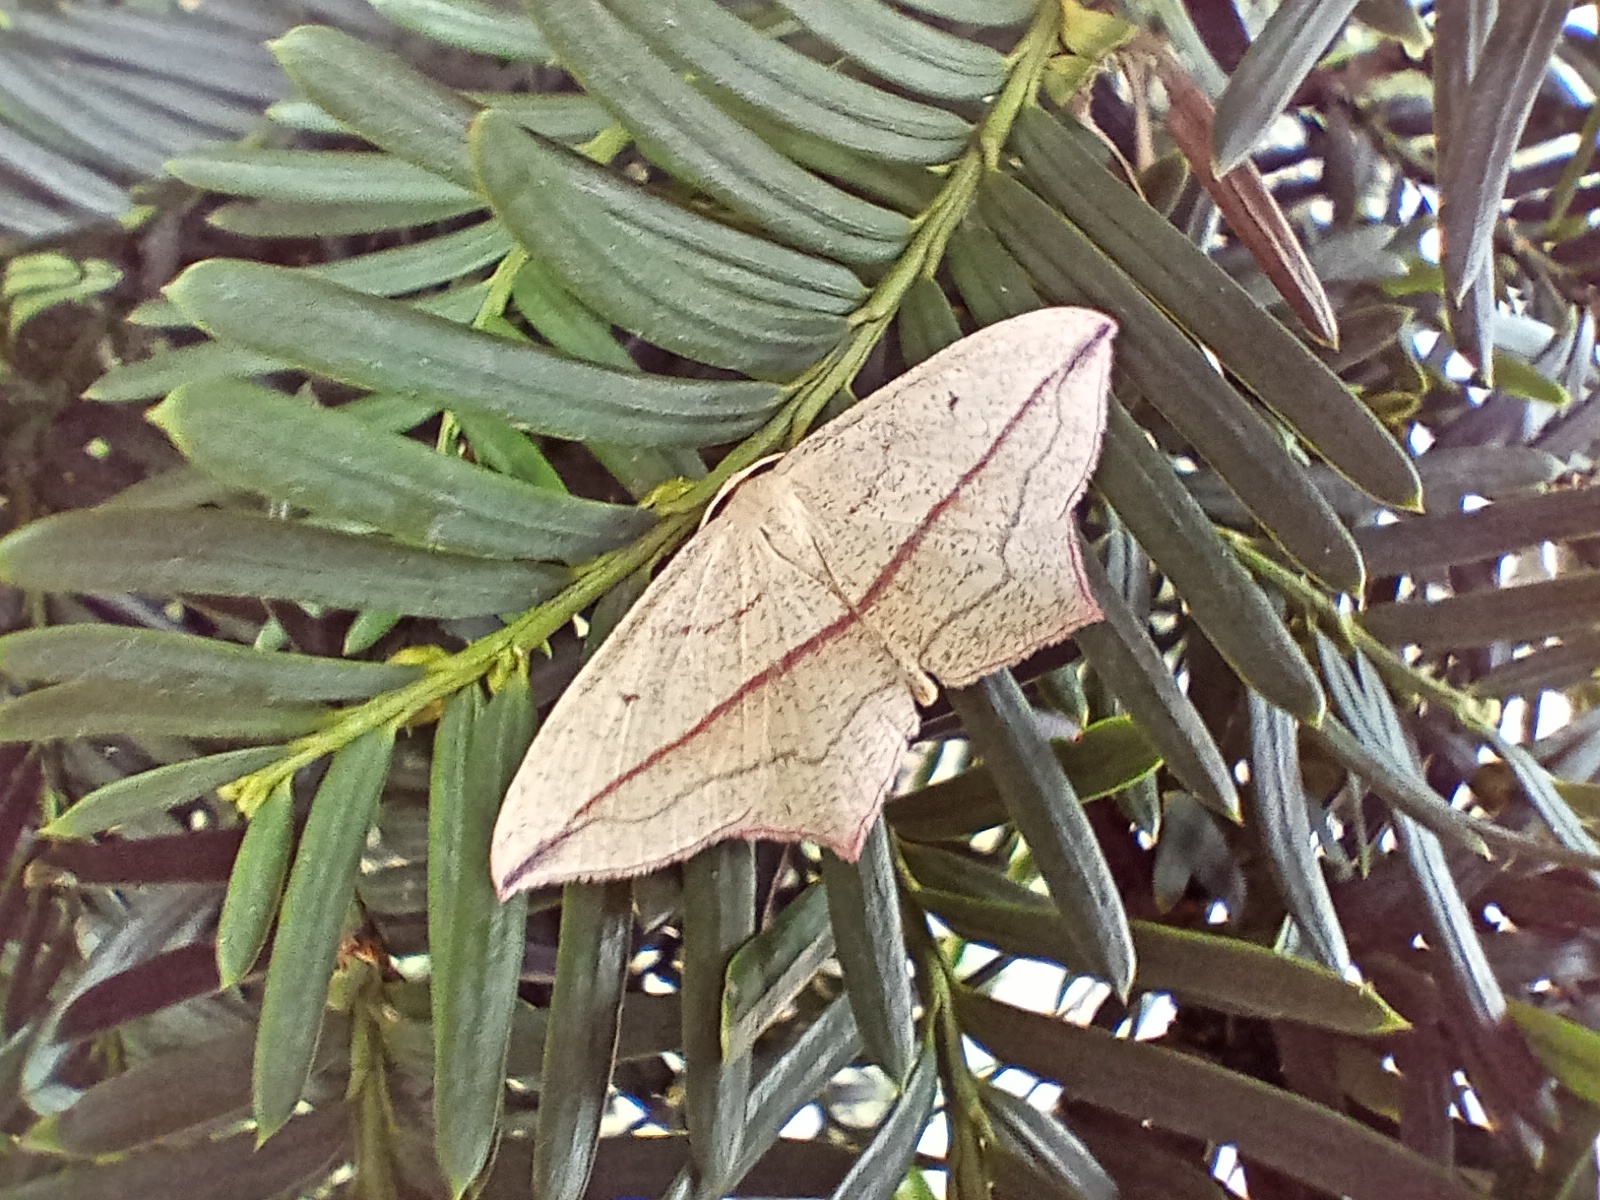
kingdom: Animalia
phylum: Arthropoda
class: Insecta
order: Lepidoptera
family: Geometridae
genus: Timandra
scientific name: Timandra comae
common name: Blood-vein
